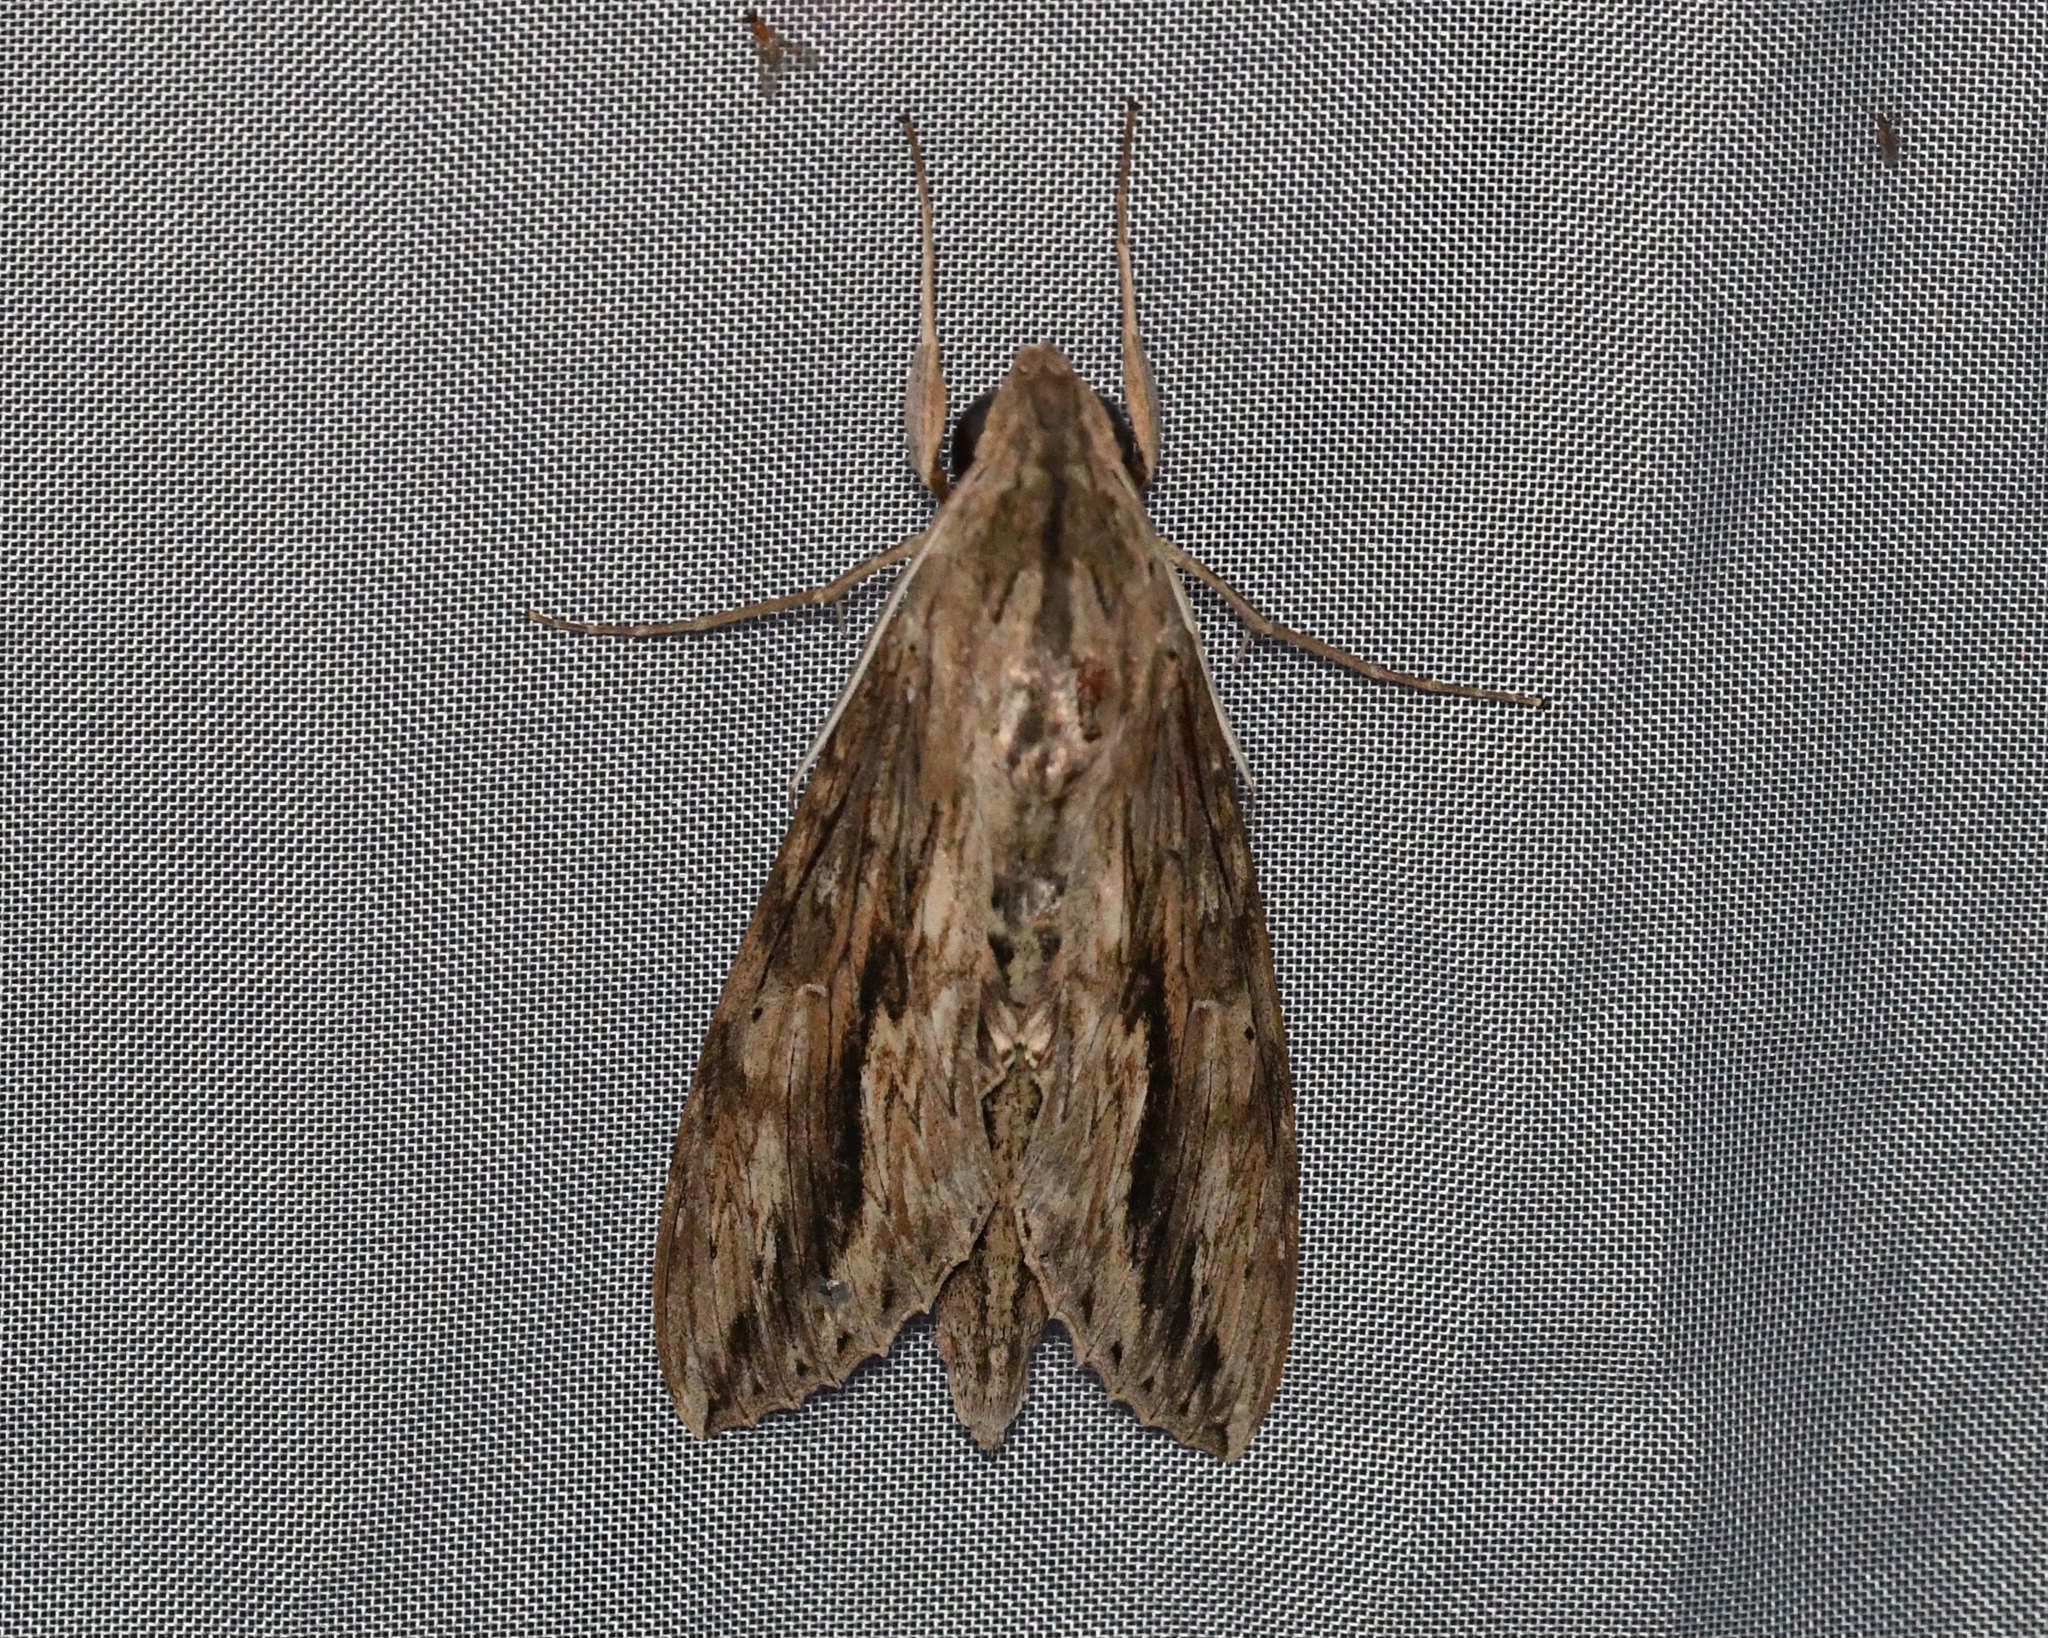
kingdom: Animalia
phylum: Arthropoda
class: Insecta
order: Lepidoptera
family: Sphingidae
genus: Erinnyis
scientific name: Erinnyis ello
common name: Ello sphinx
